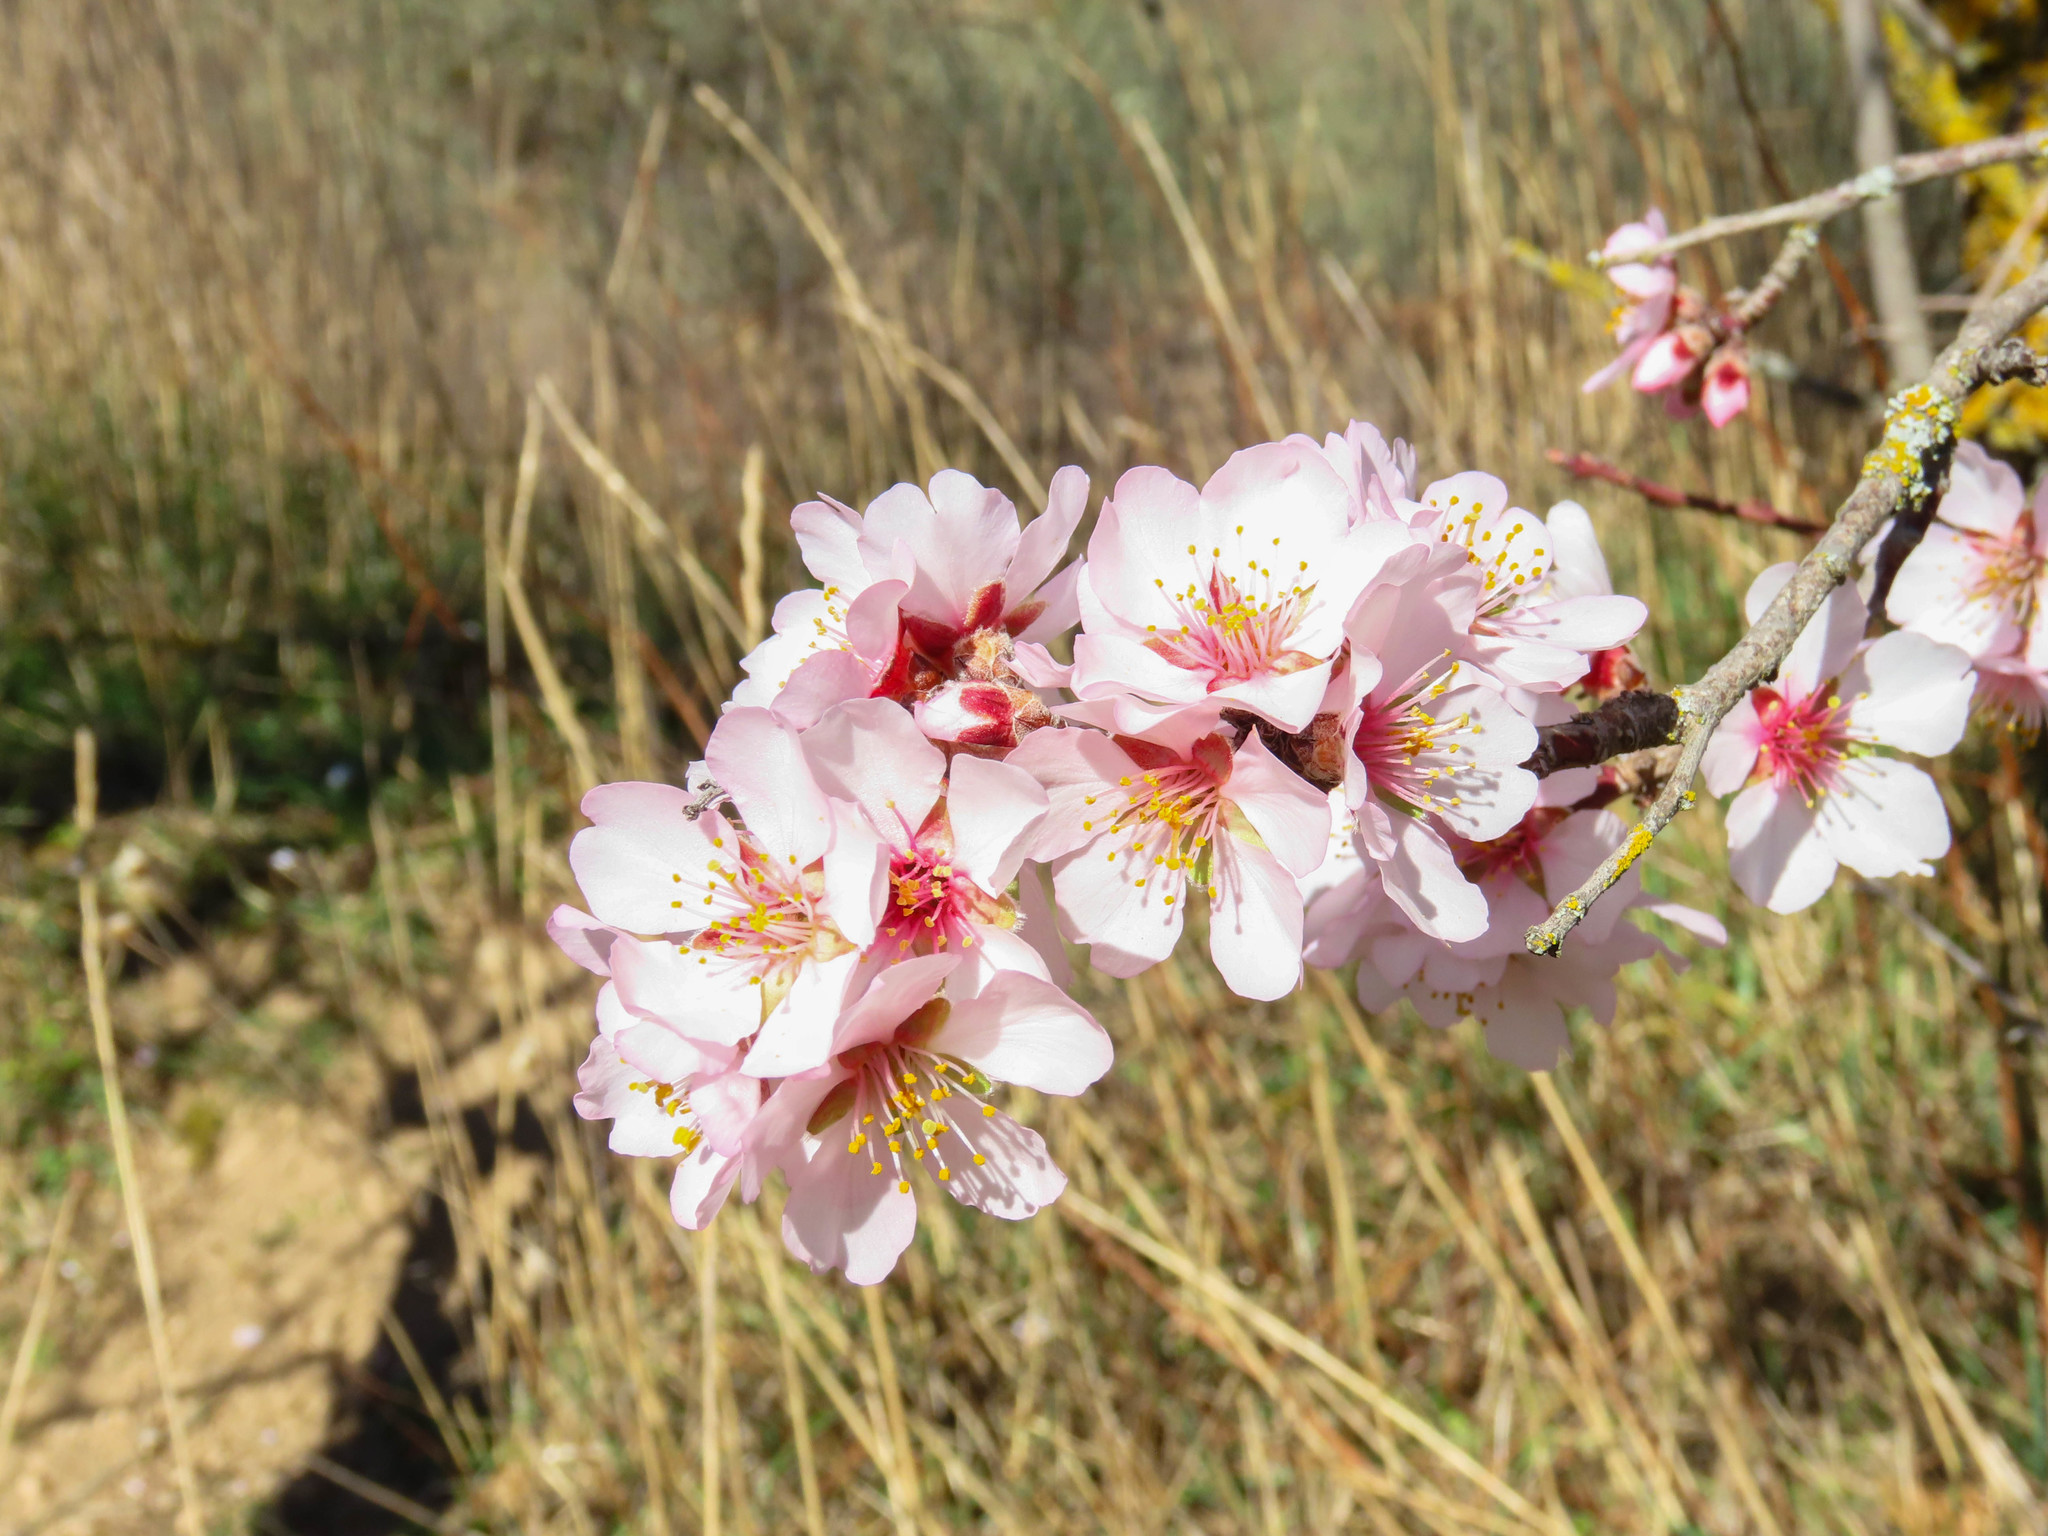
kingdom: Plantae
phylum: Tracheophyta
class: Magnoliopsida
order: Rosales
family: Rosaceae
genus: Prunus
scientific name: Prunus amygdalus
